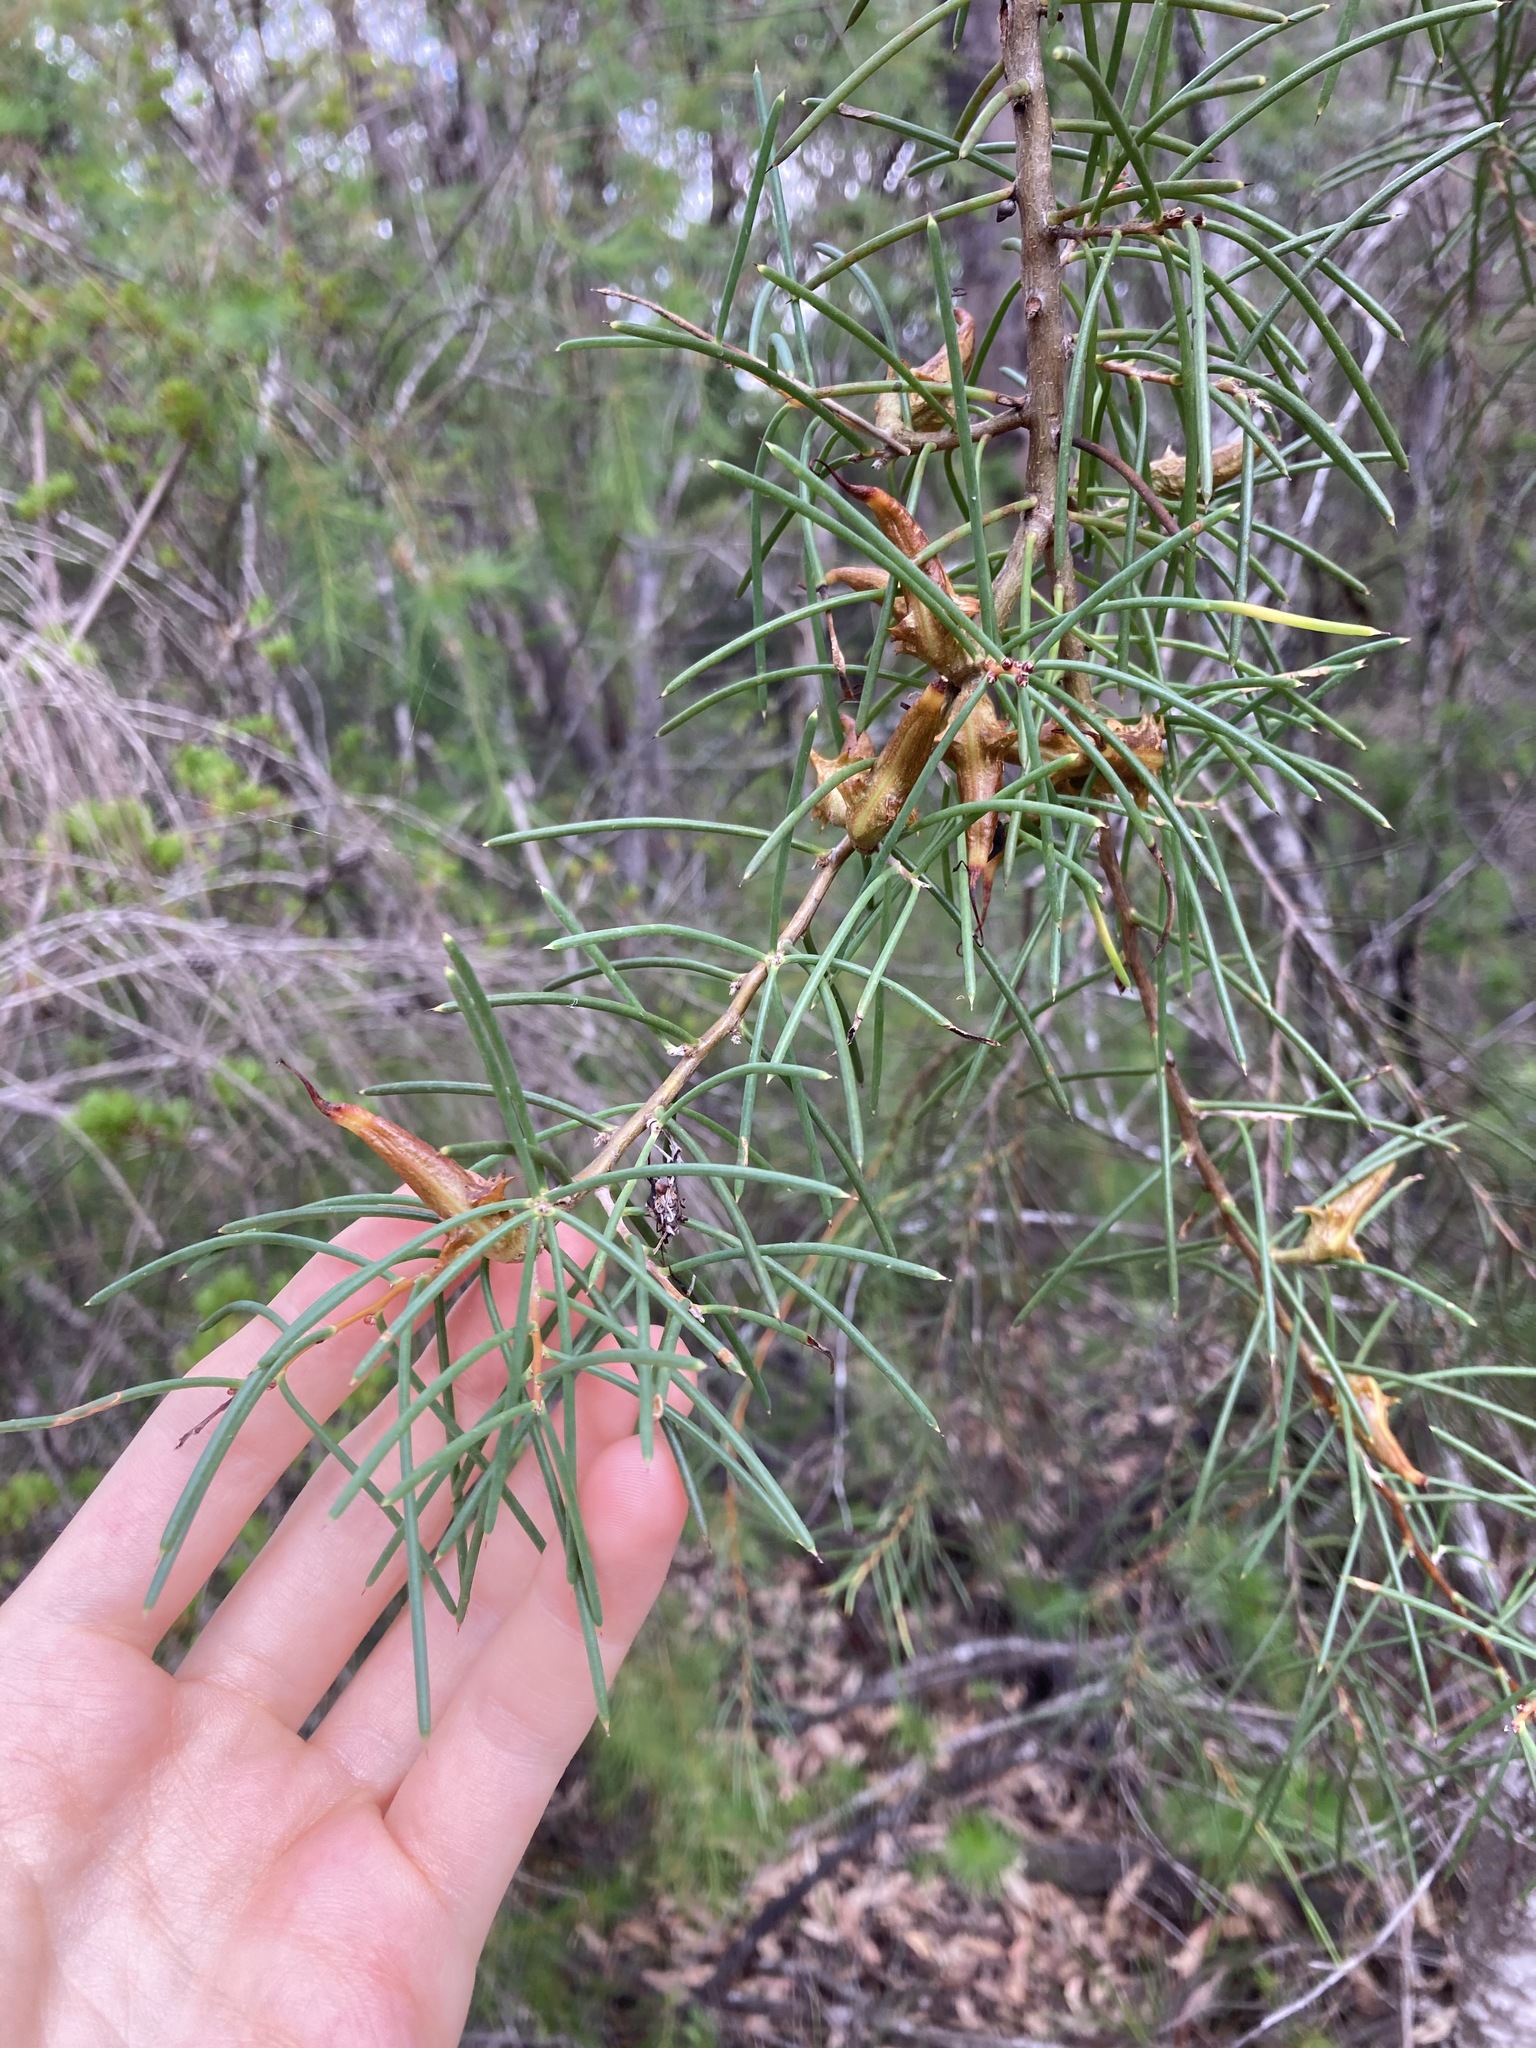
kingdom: Plantae
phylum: Tracheophyta
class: Magnoliopsida
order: Proteales
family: Proteaceae
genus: Hakea
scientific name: Hakea teretifolia
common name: Dagger hakea
